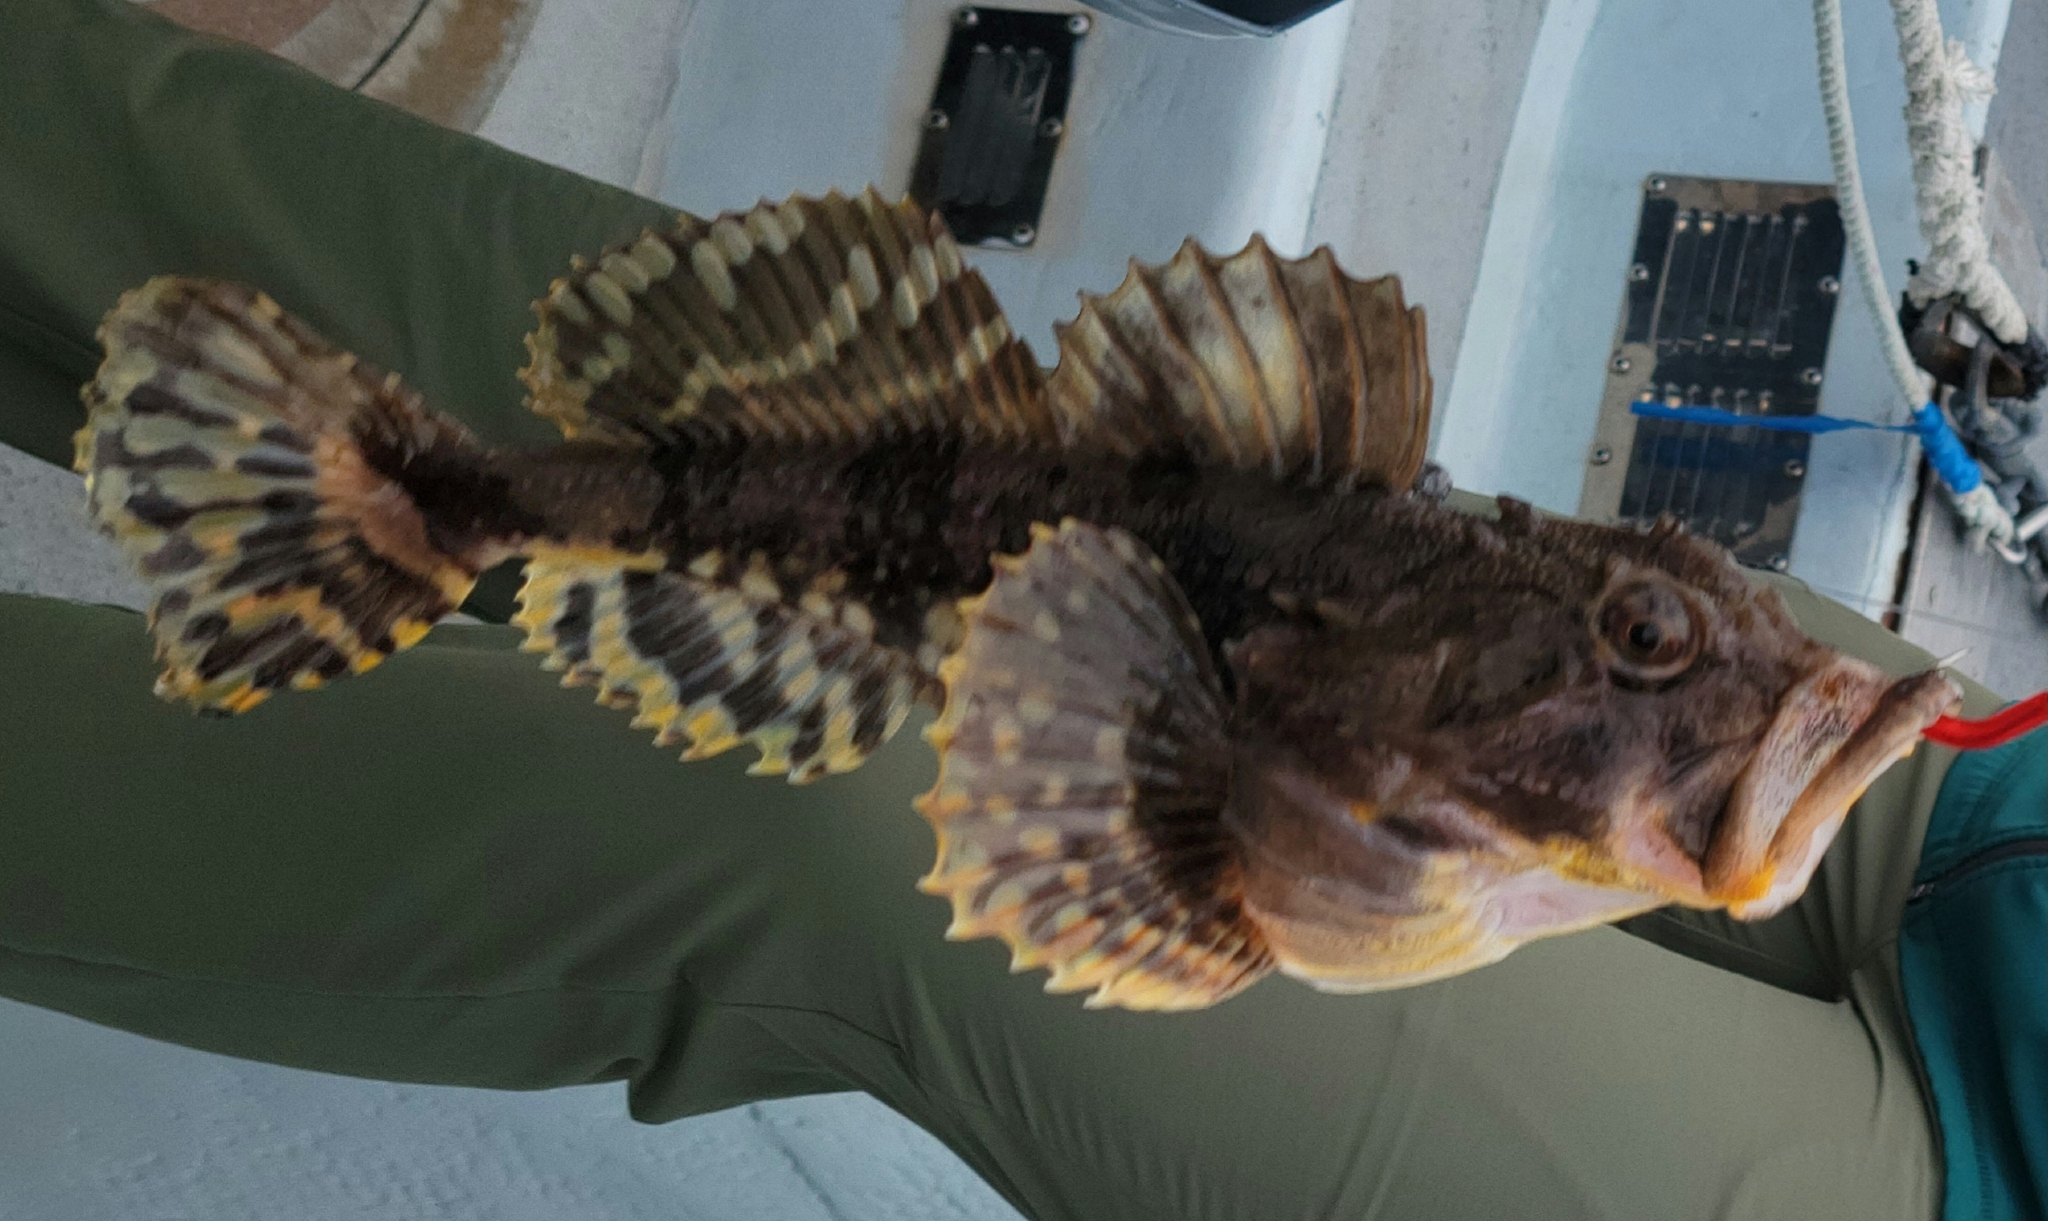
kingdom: Animalia
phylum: Chordata
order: Scorpaeniformes
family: Cottidae
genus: Myoxocephalus
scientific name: Myoxocephalus scorpius
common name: Shorthorn sculpin
